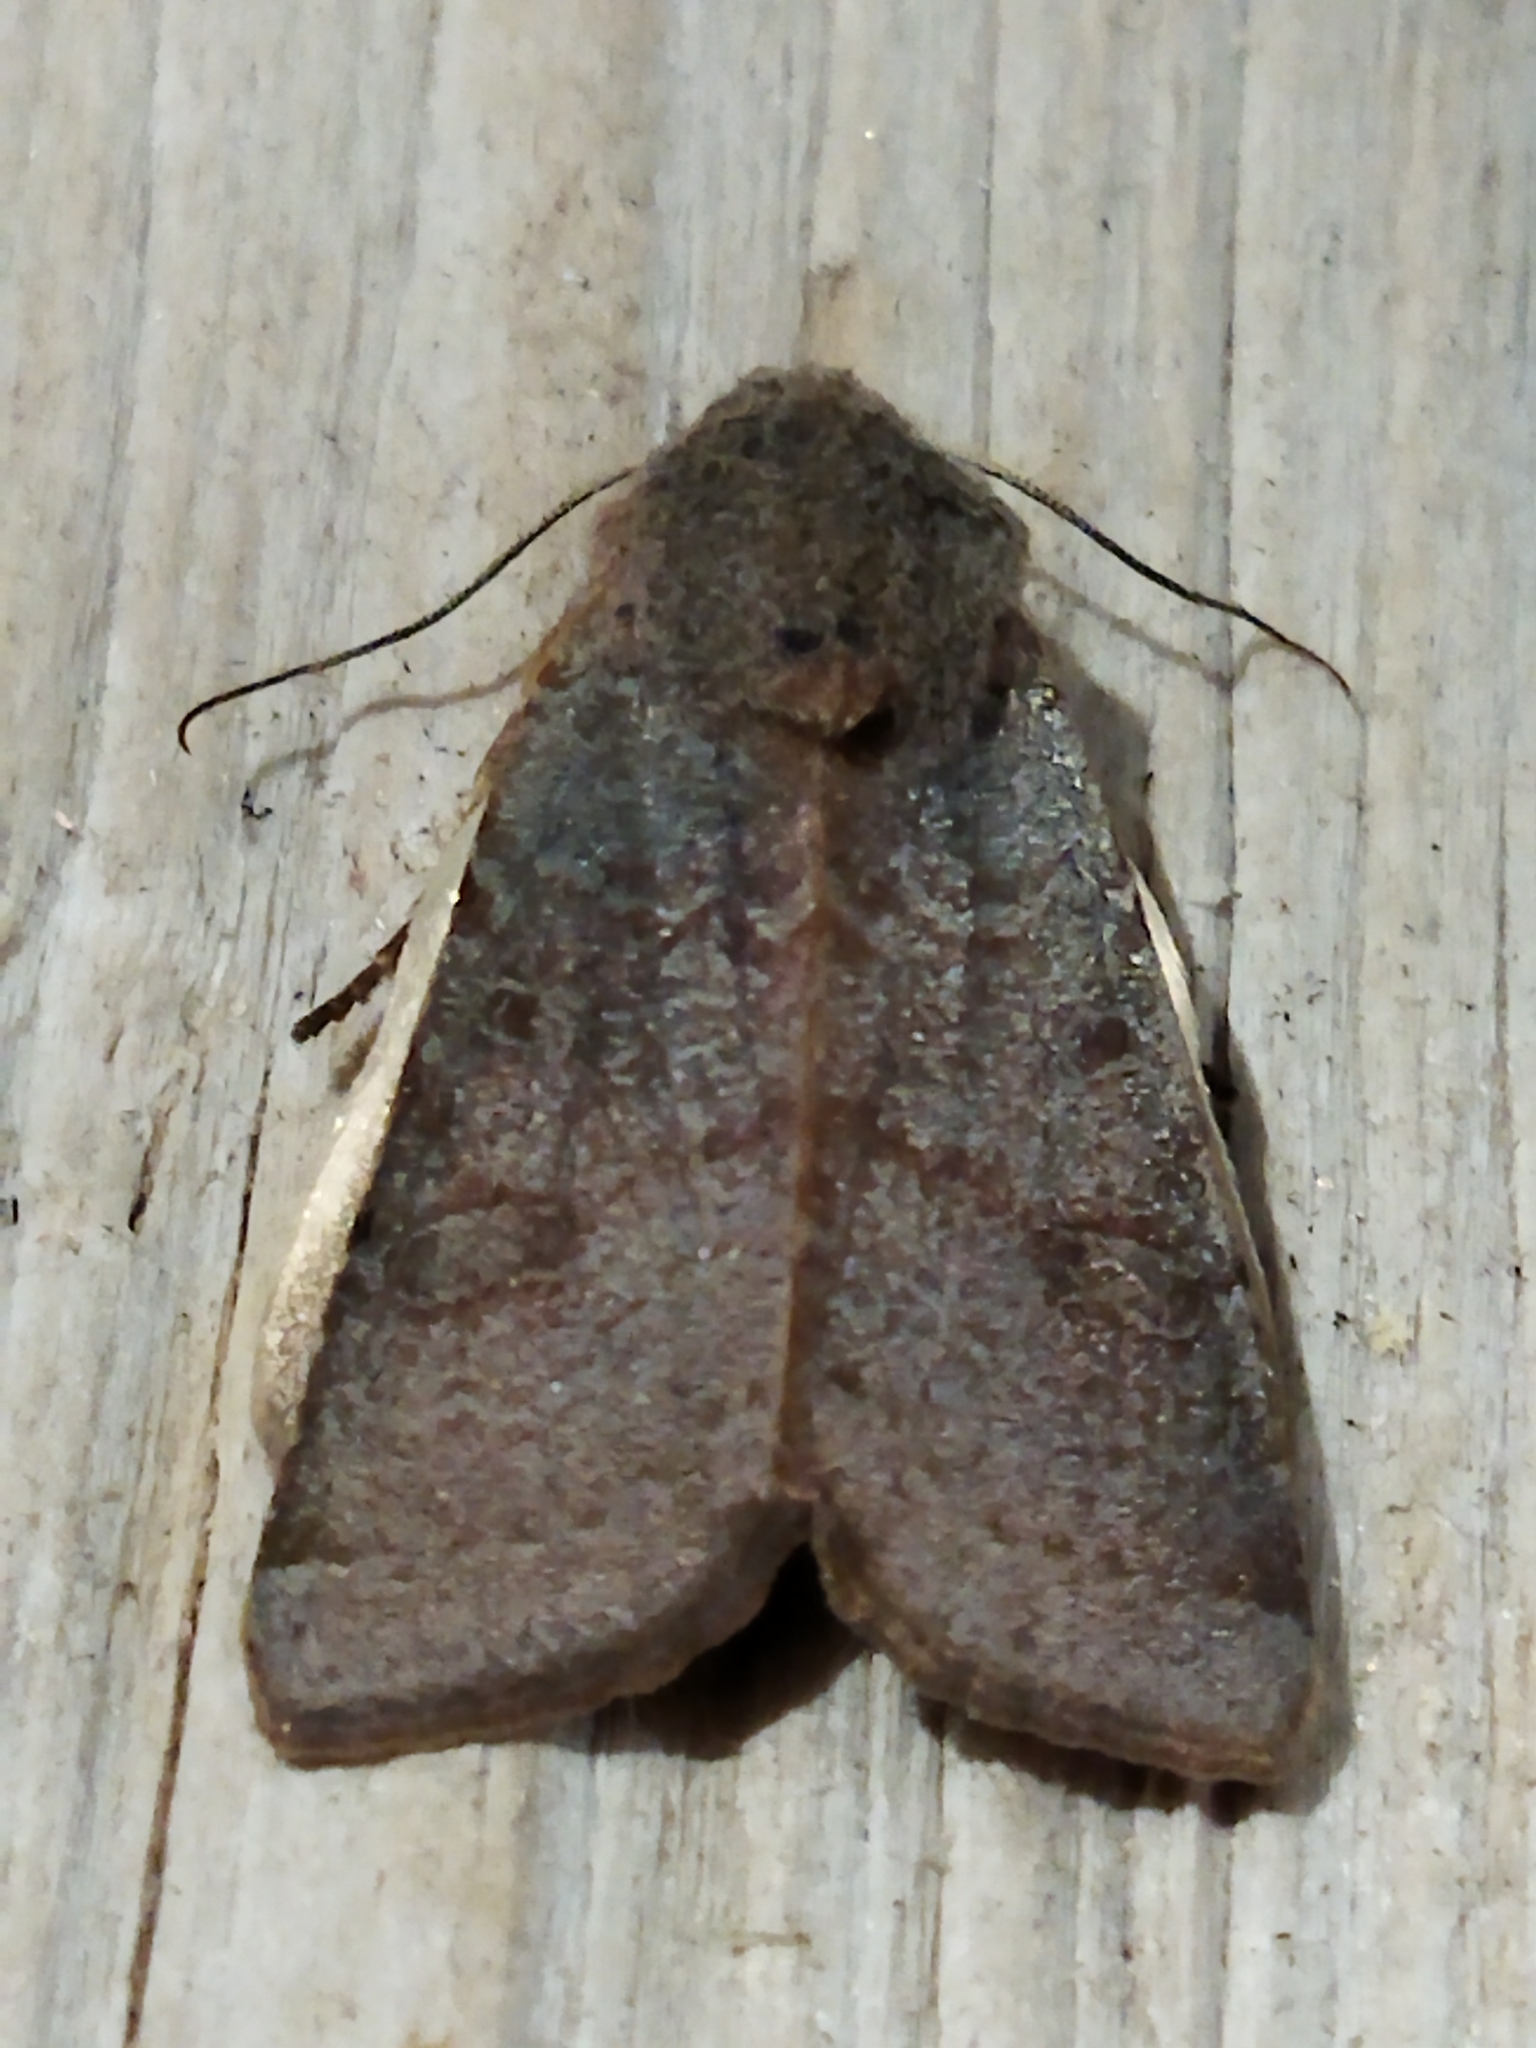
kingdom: Animalia
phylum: Arthropoda
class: Insecta
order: Lepidoptera
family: Noctuidae
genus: Agrochola
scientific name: Agrochola lychnidis
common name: Beaded chestnut
